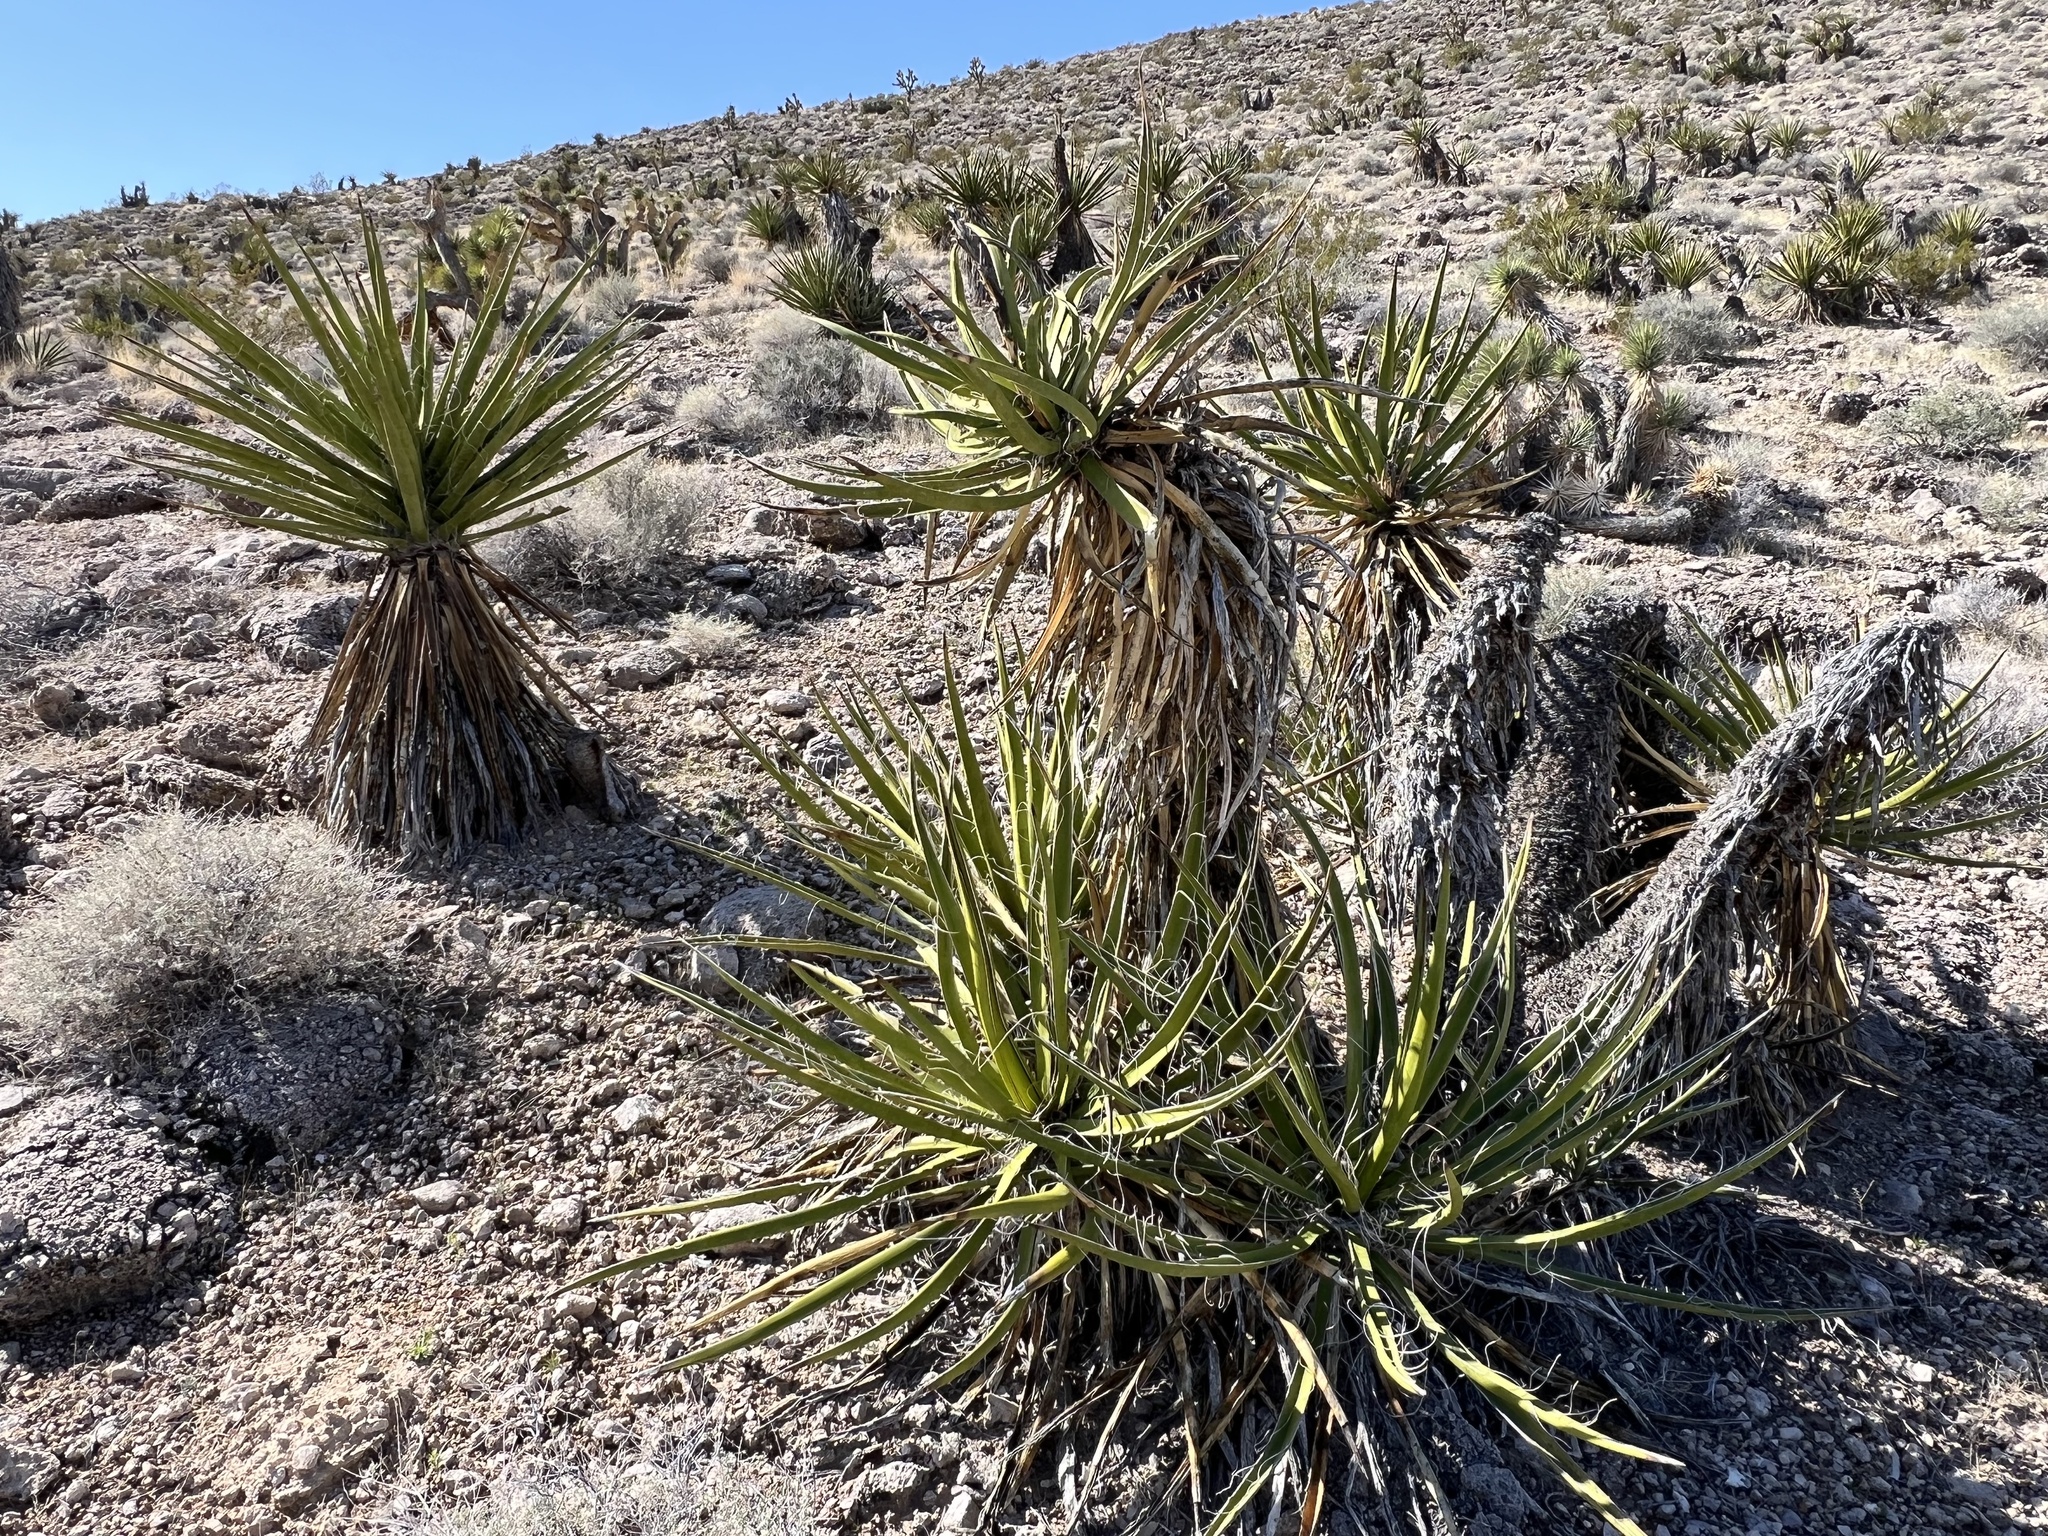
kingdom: Plantae
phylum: Tracheophyta
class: Liliopsida
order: Asparagales
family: Asparagaceae
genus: Yucca
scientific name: Yucca schidigera
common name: Mojave yucca
